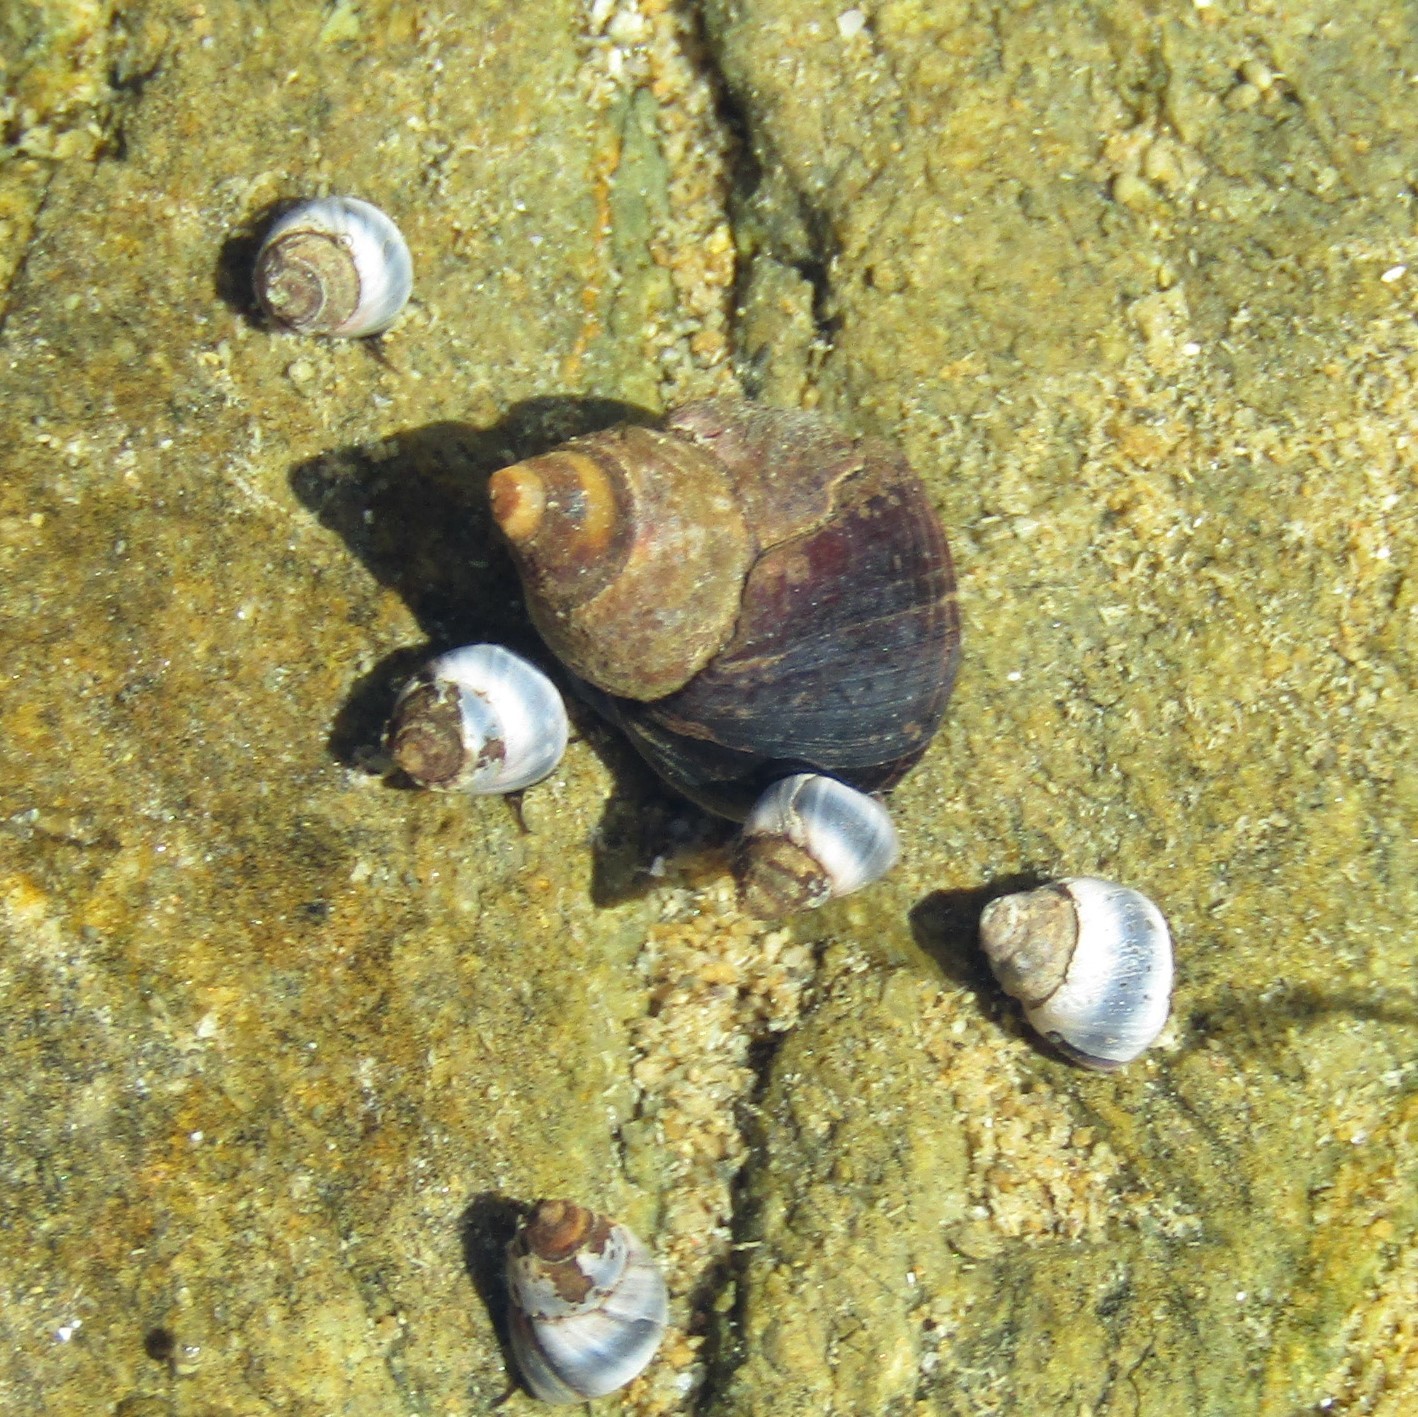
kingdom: Animalia
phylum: Mollusca
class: Gastropoda
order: Littorinimorpha
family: Littorinidae
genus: Austrolittorina
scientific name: Austrolittorina antipodum
